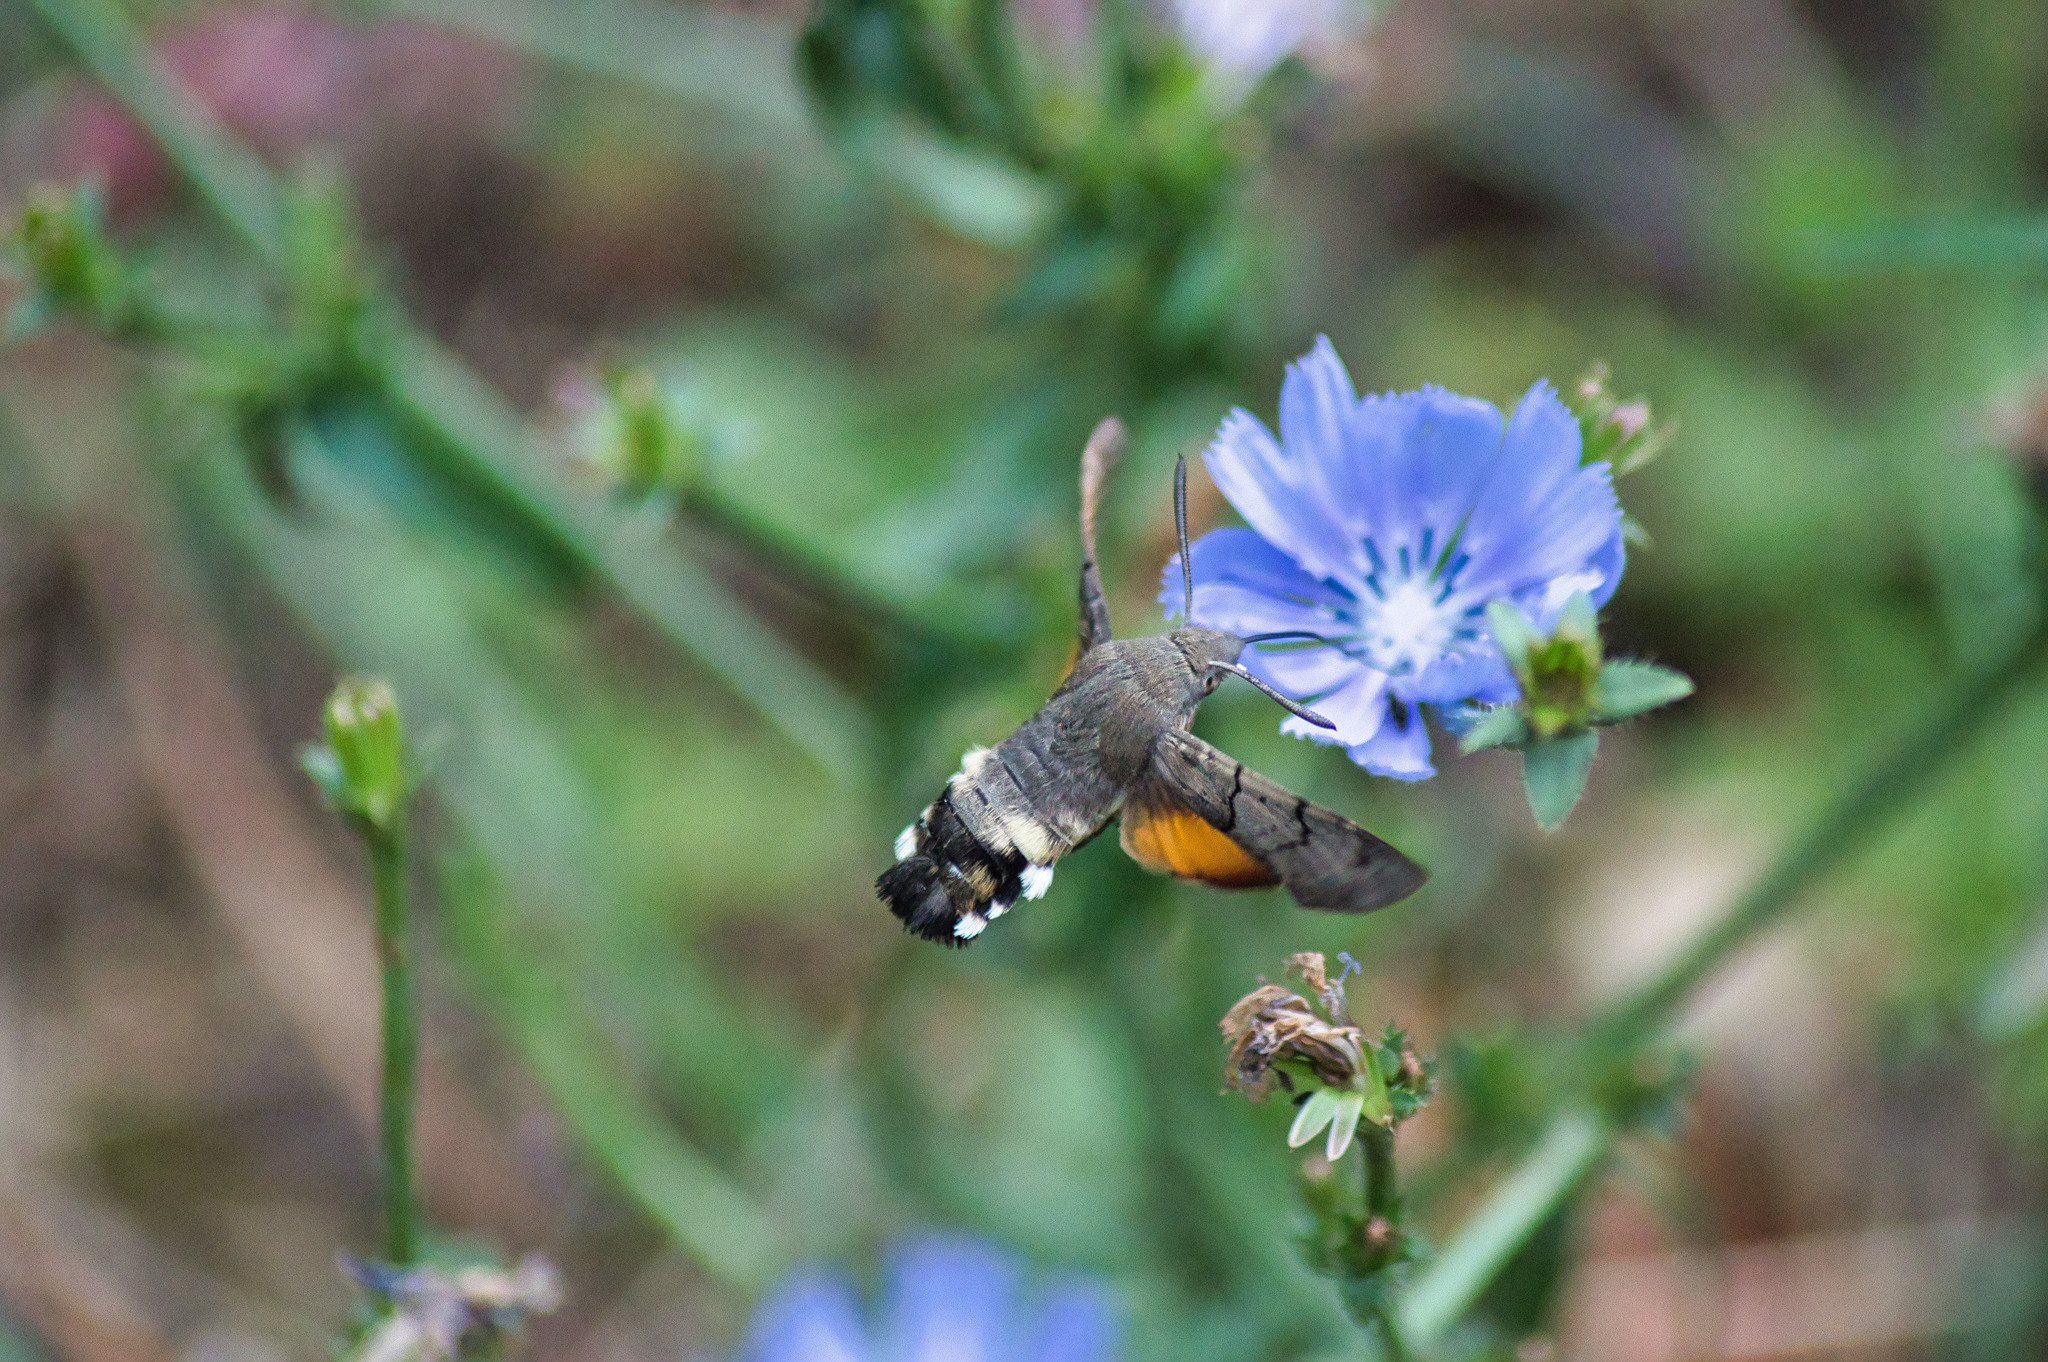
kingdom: Animalia
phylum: Arthropoda
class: Insecta
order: Lepidoptera
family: Sphingidae
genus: Macroglossum
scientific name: Macroglossum stellatarum
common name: Humming-bird hawk-moth
